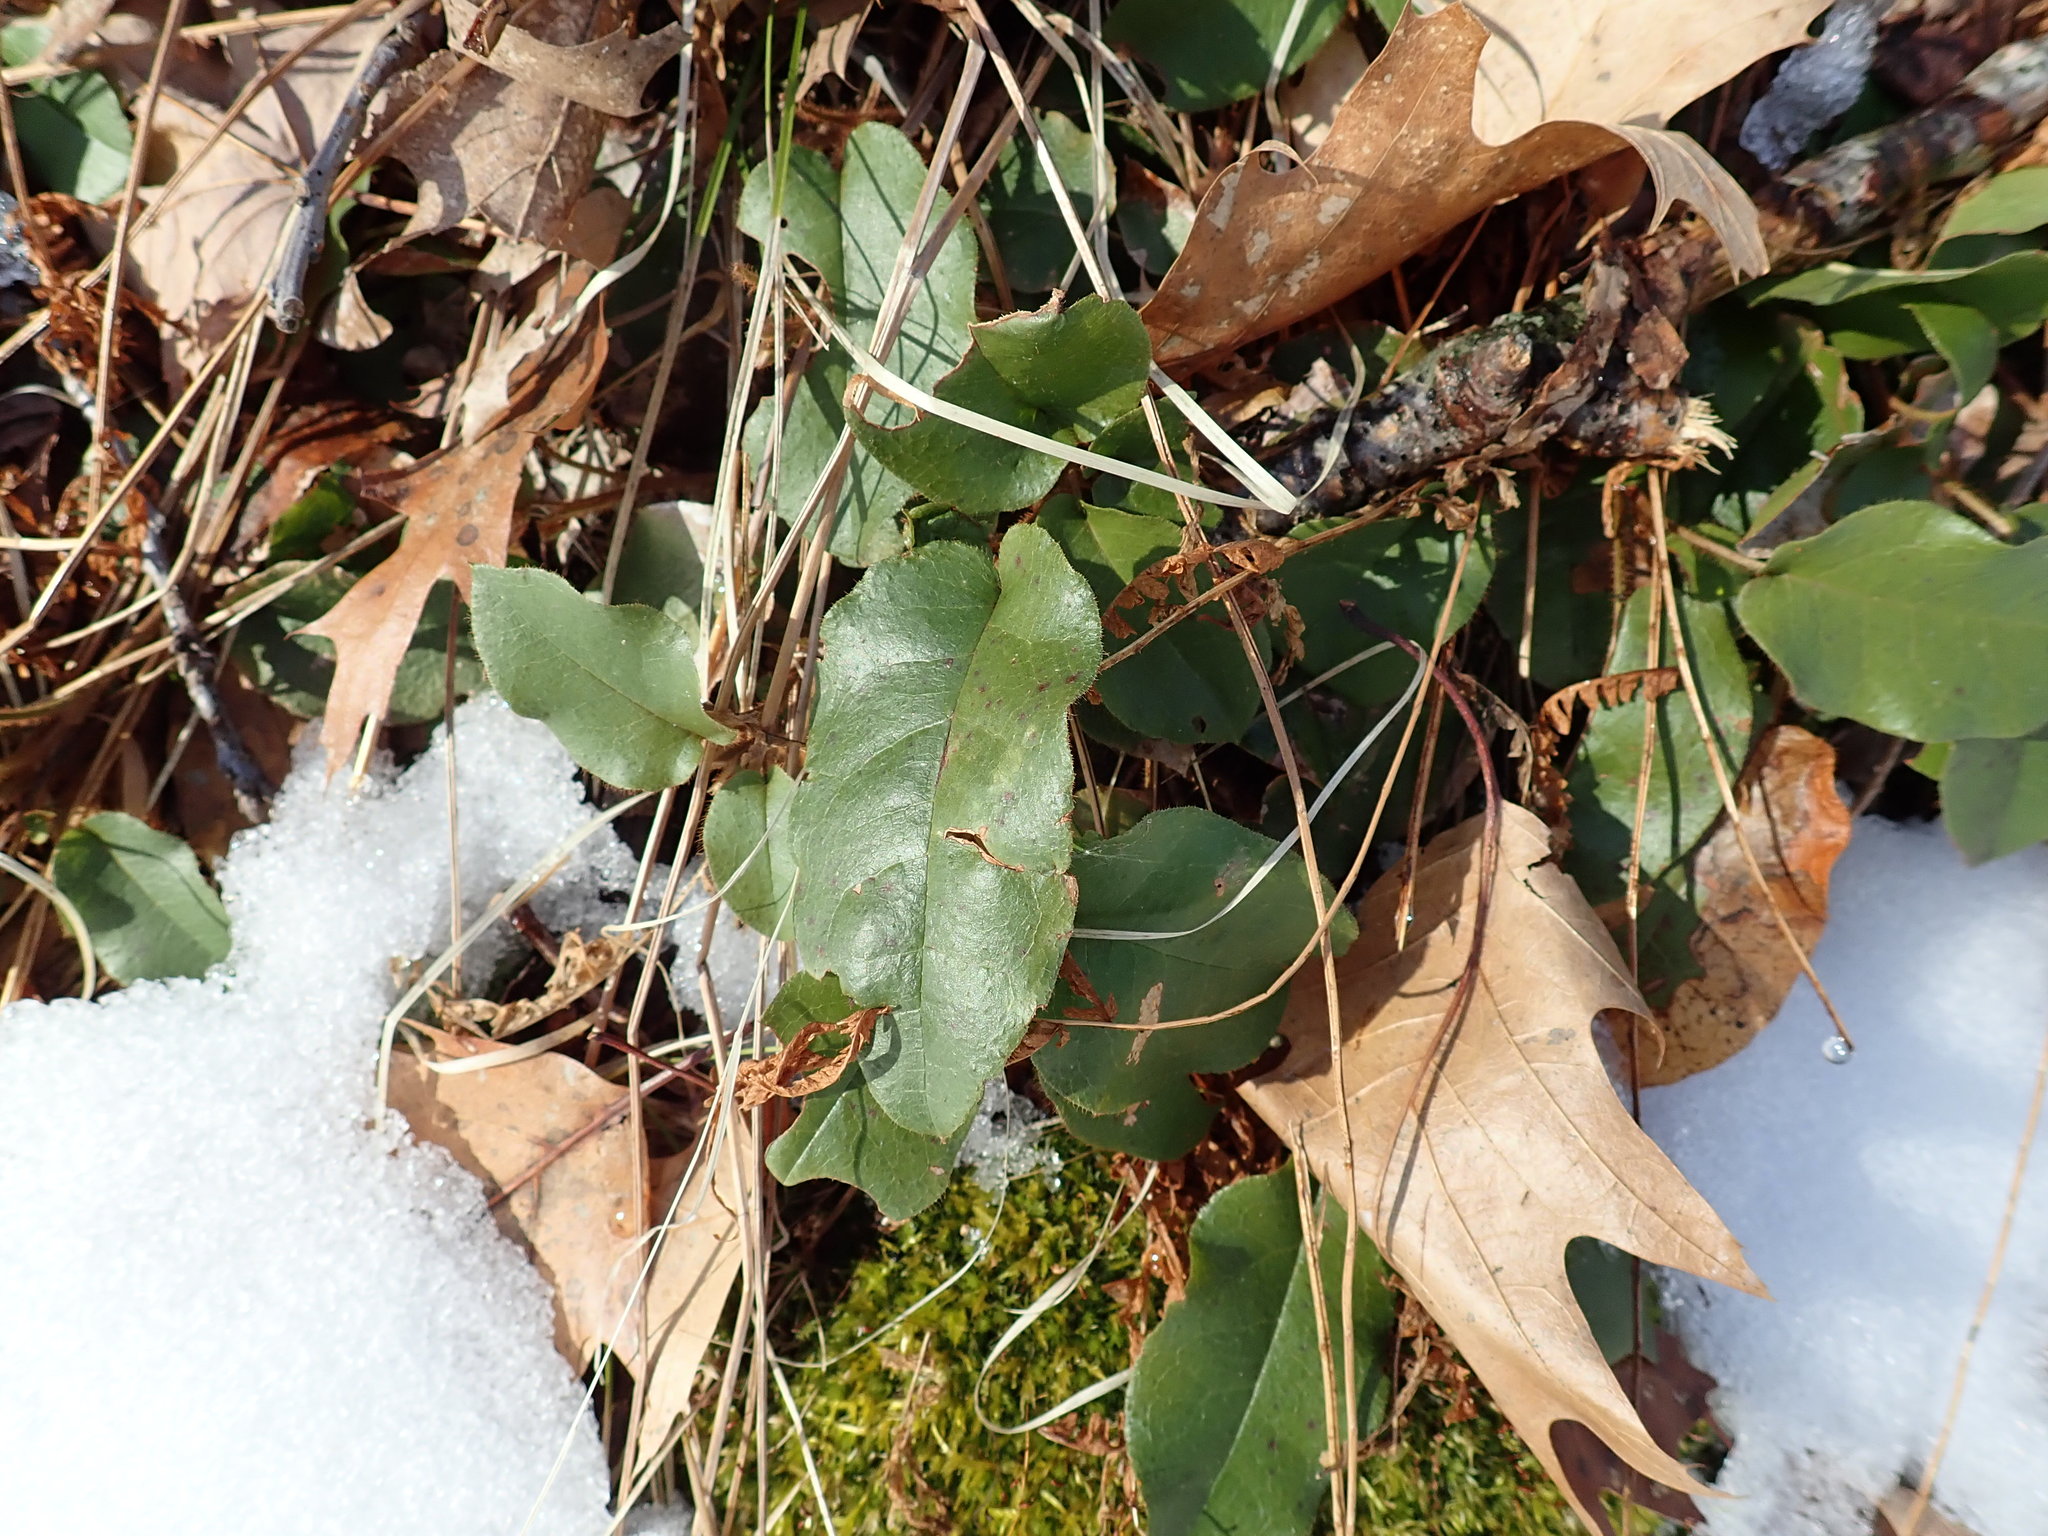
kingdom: Plantae
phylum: Tracheophyta
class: Magnoliopsida
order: Ericales
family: Ericaceae
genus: Epigaea
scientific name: Epigaea repens
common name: Gravelroot
